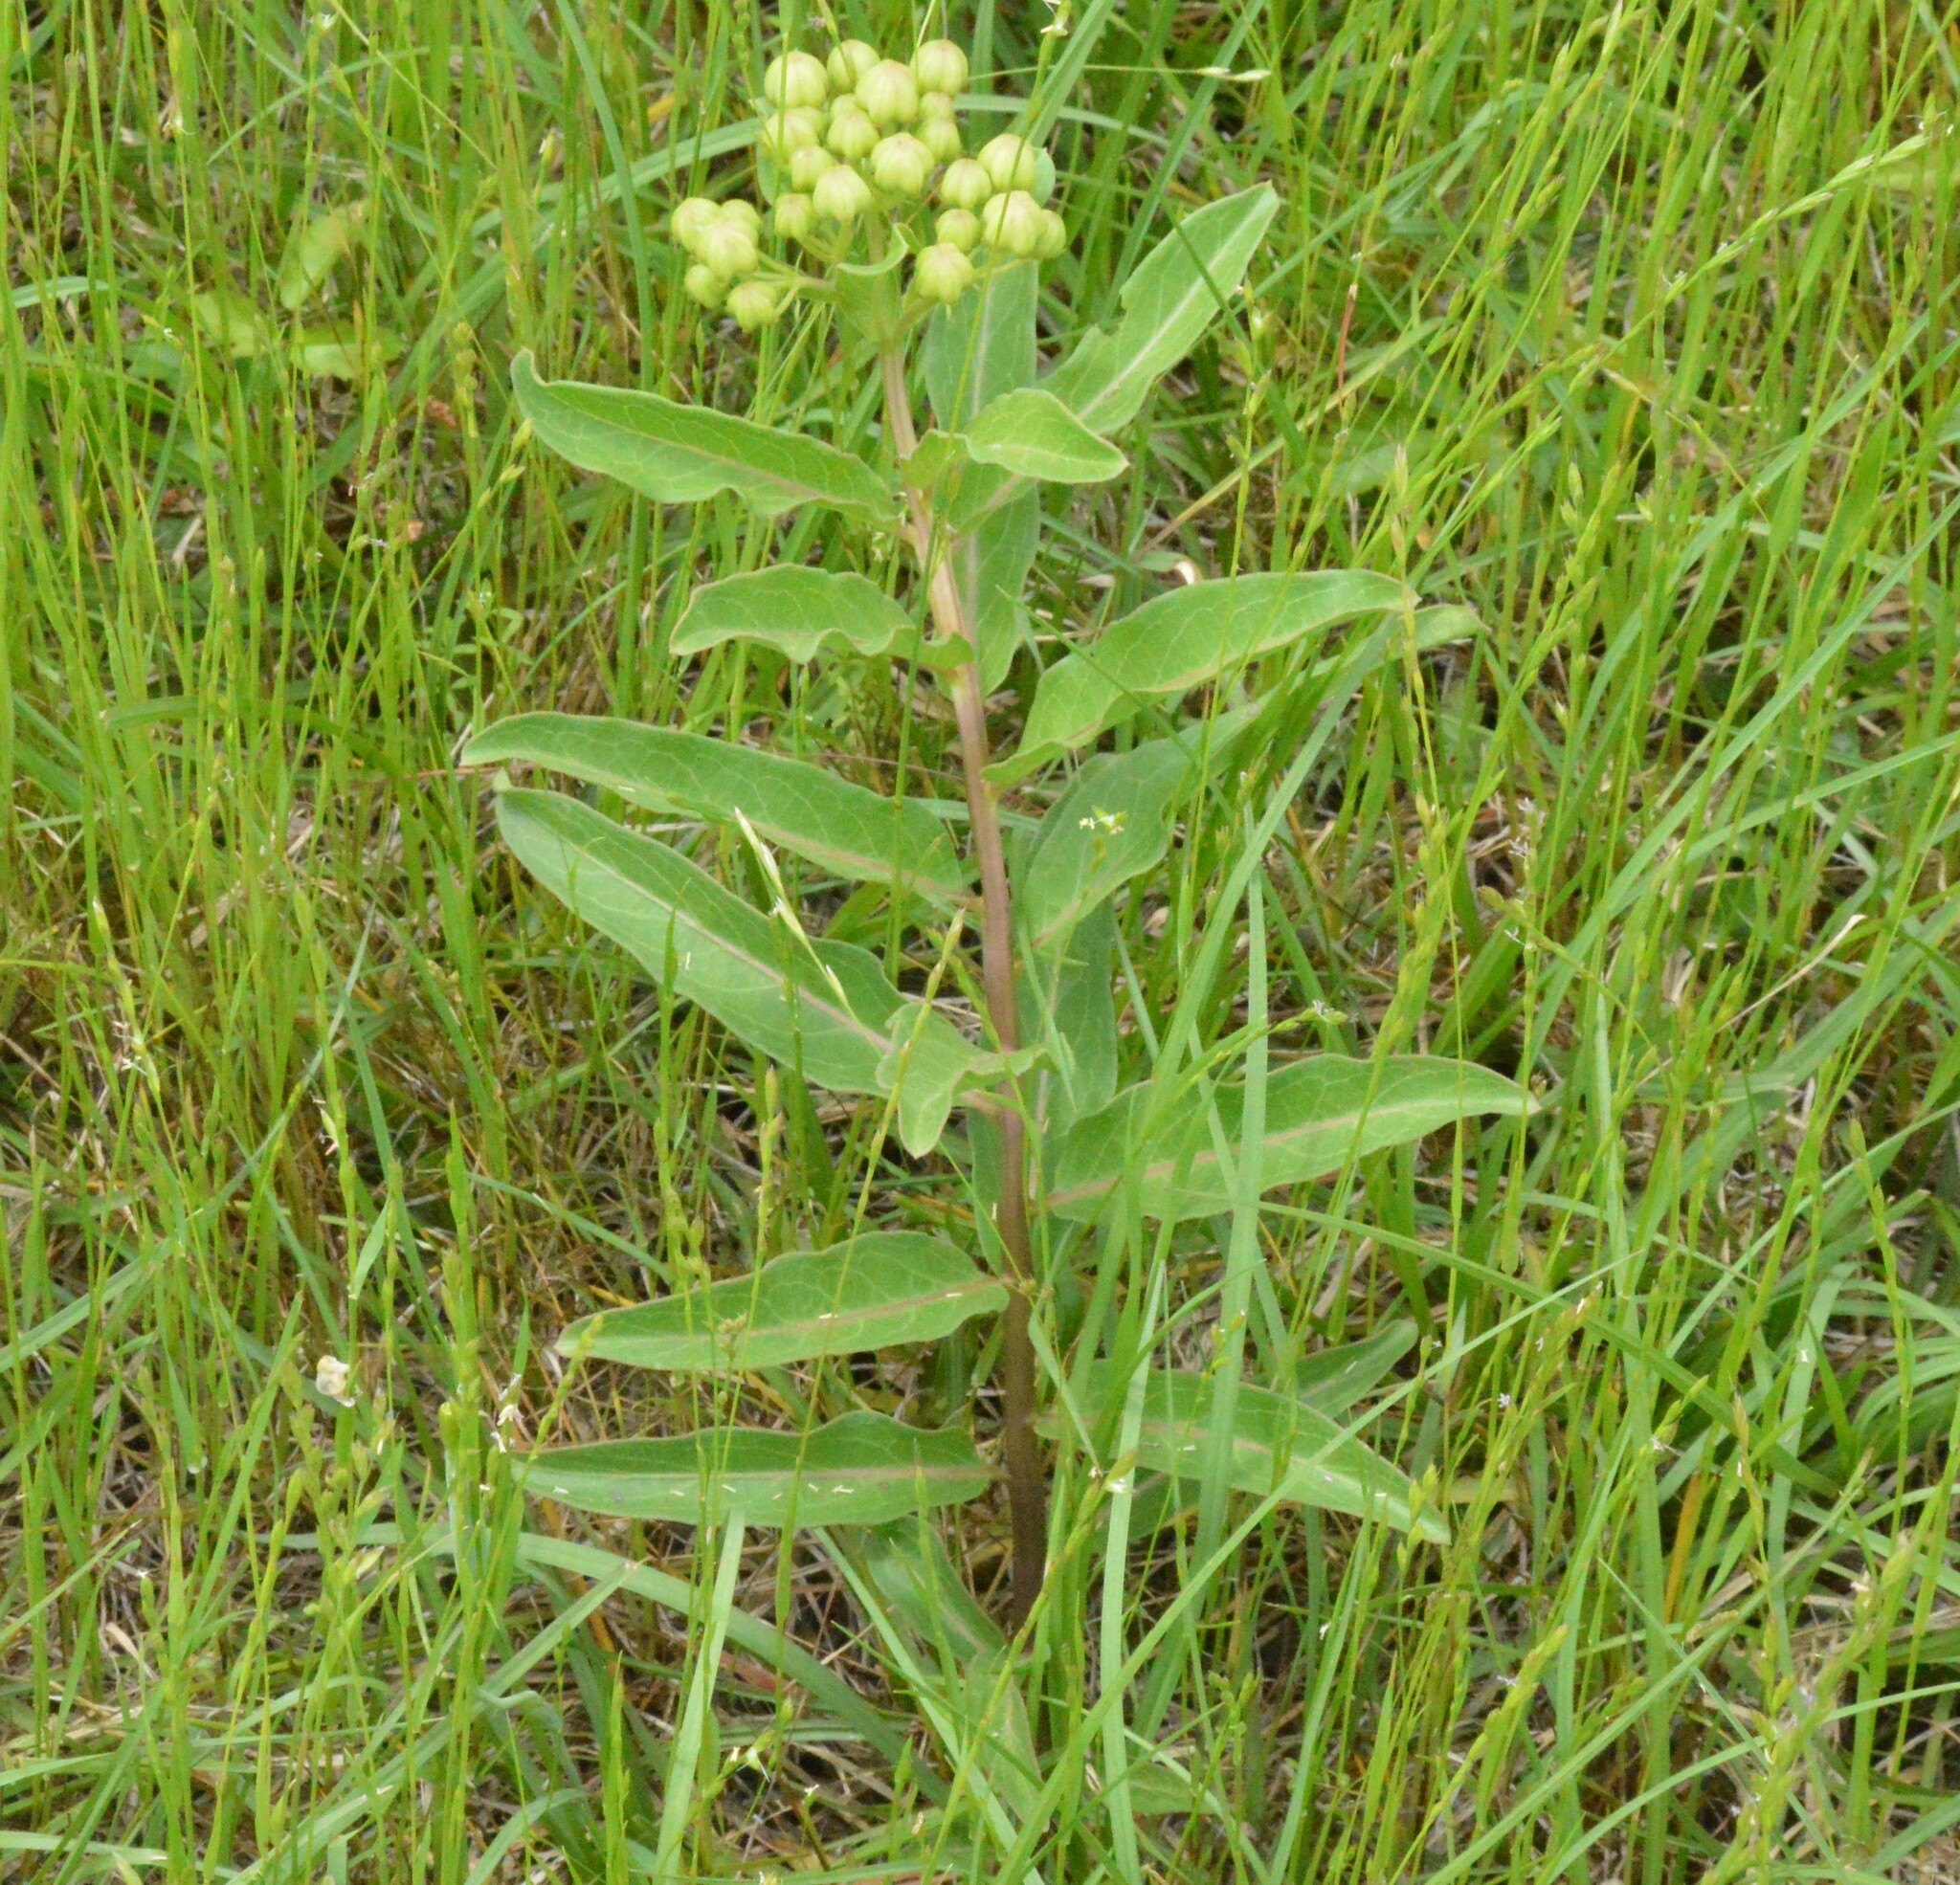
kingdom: Plantae
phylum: Tracheophyta
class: Magnoliopsida
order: Gentianales
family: Apocynaceae
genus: Asclepias
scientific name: Asclepias viridis
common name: Antelope-horns
